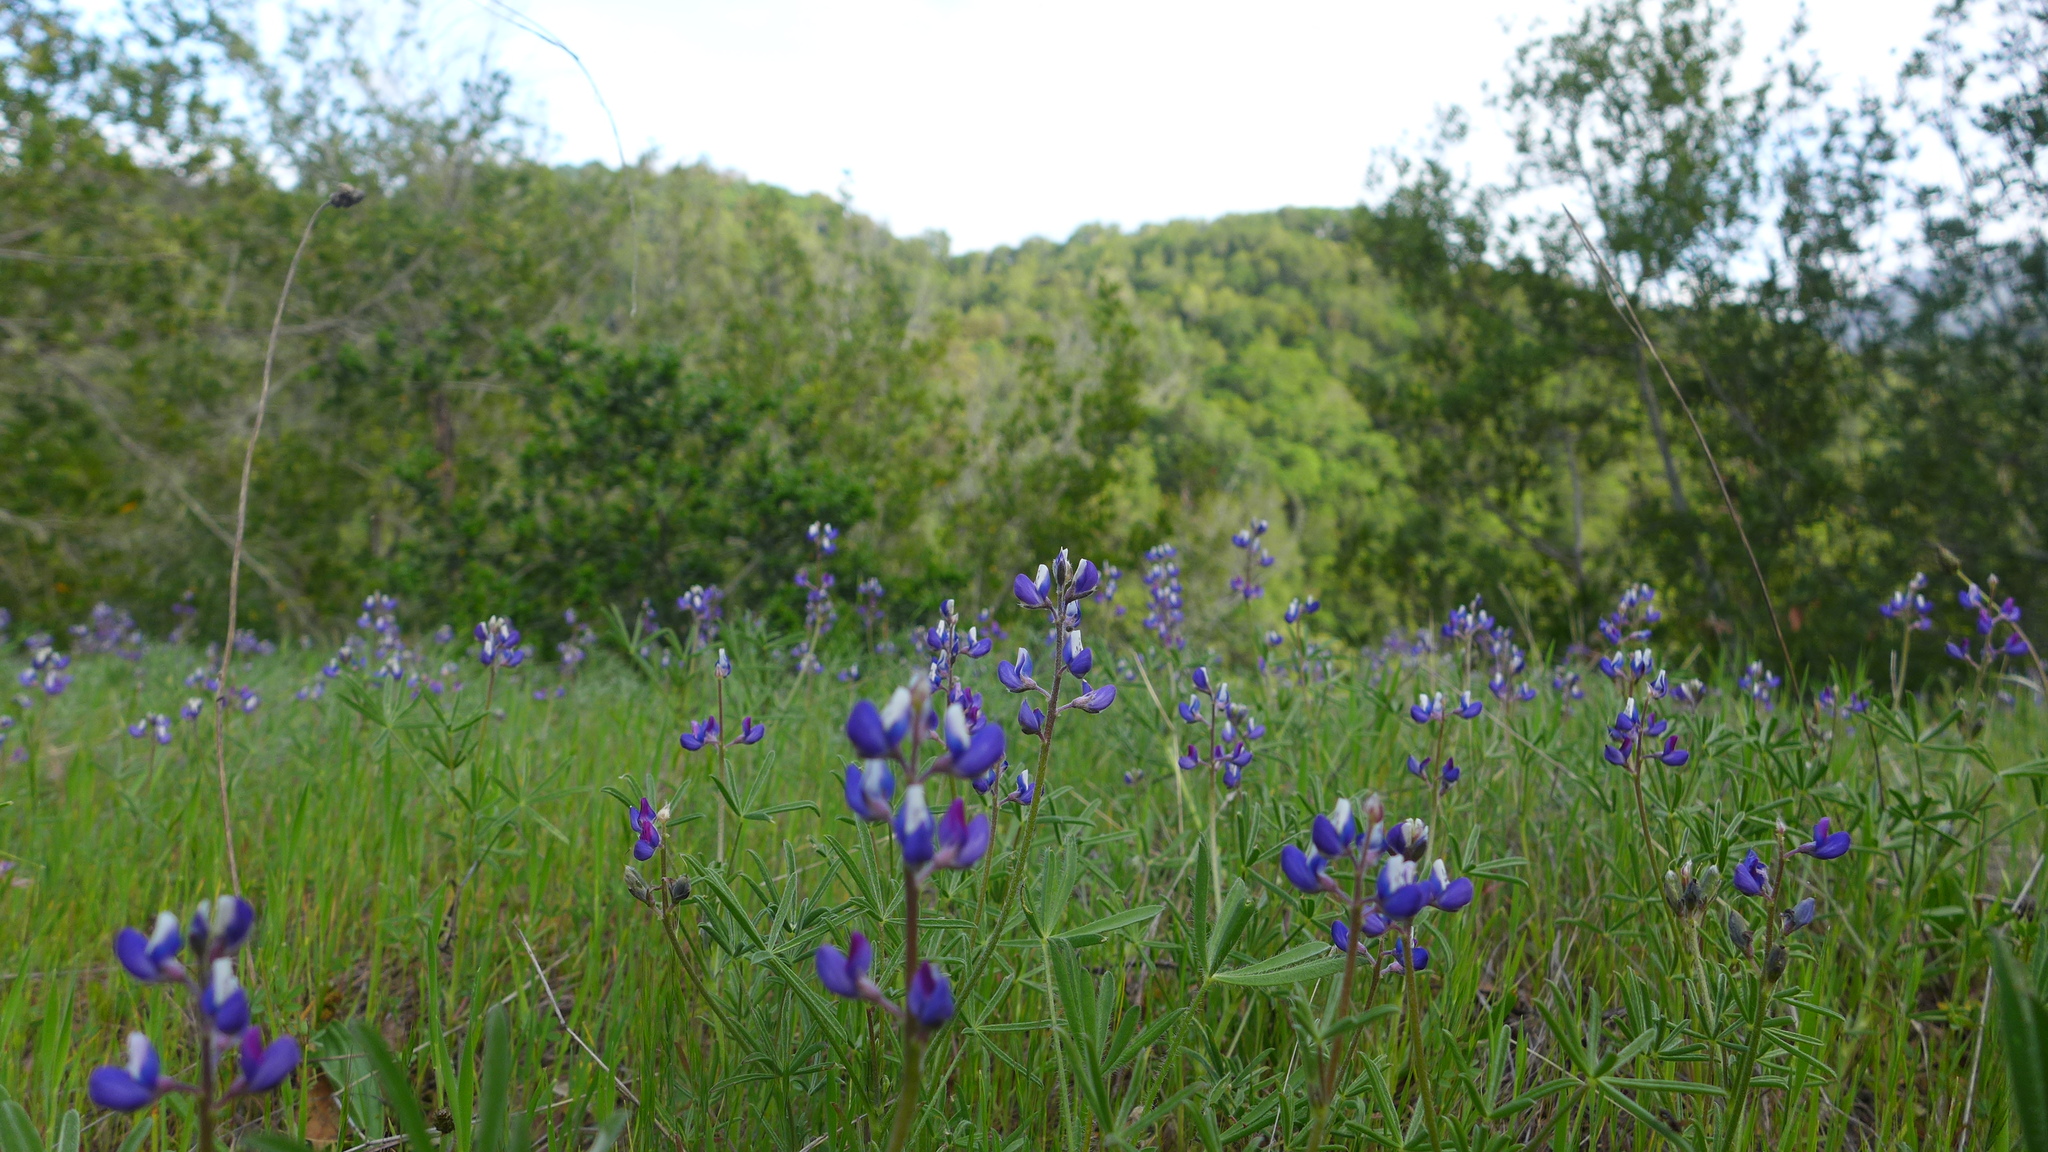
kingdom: Plantae
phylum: Tracheophyta
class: Magnoliopsida
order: Fabales
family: Fabaceae
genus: Lupinus
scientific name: Lupinus bicolor
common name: Miniature lupine
